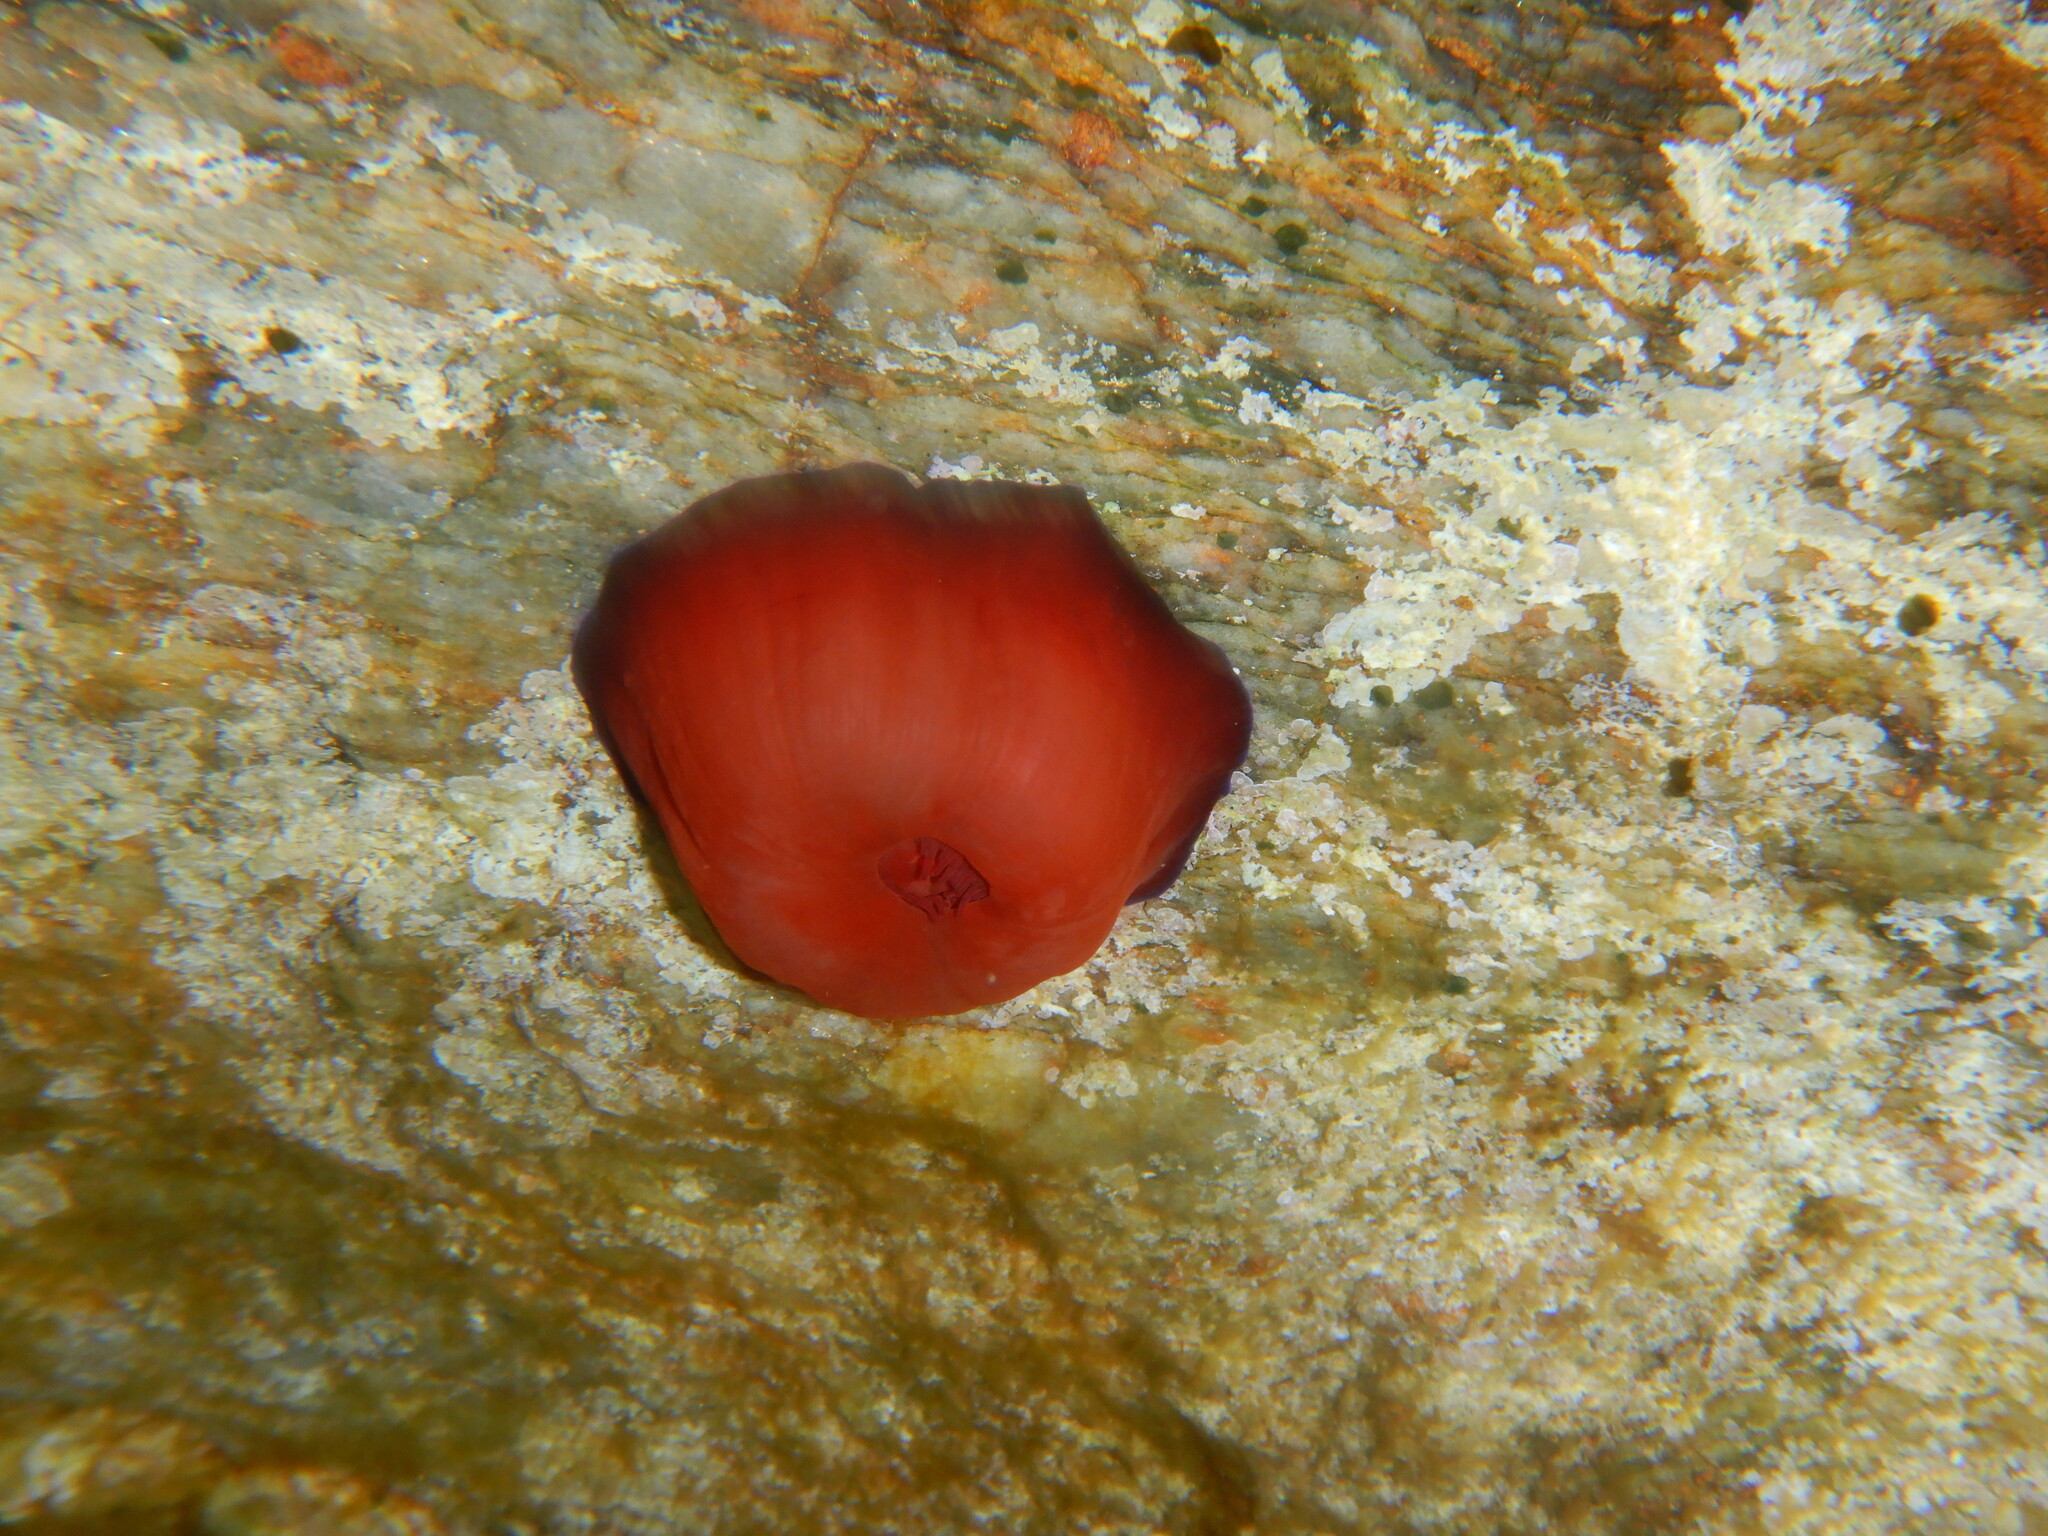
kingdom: Animalia
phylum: Cnidaria
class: Anthozoa
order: Actiniaria
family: Actiniidae
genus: Actinia
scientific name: Actinia mediterranea
